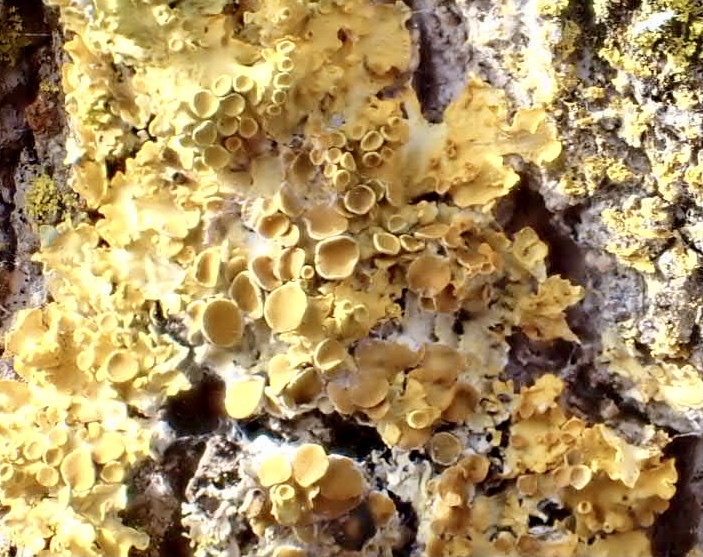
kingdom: Fungi
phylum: Ascomycota
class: Lecanoromycetes
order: Teloschistales
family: Teloschistaceae
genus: Xanthoria
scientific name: Xanthoria parietina
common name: Common orange lichen
